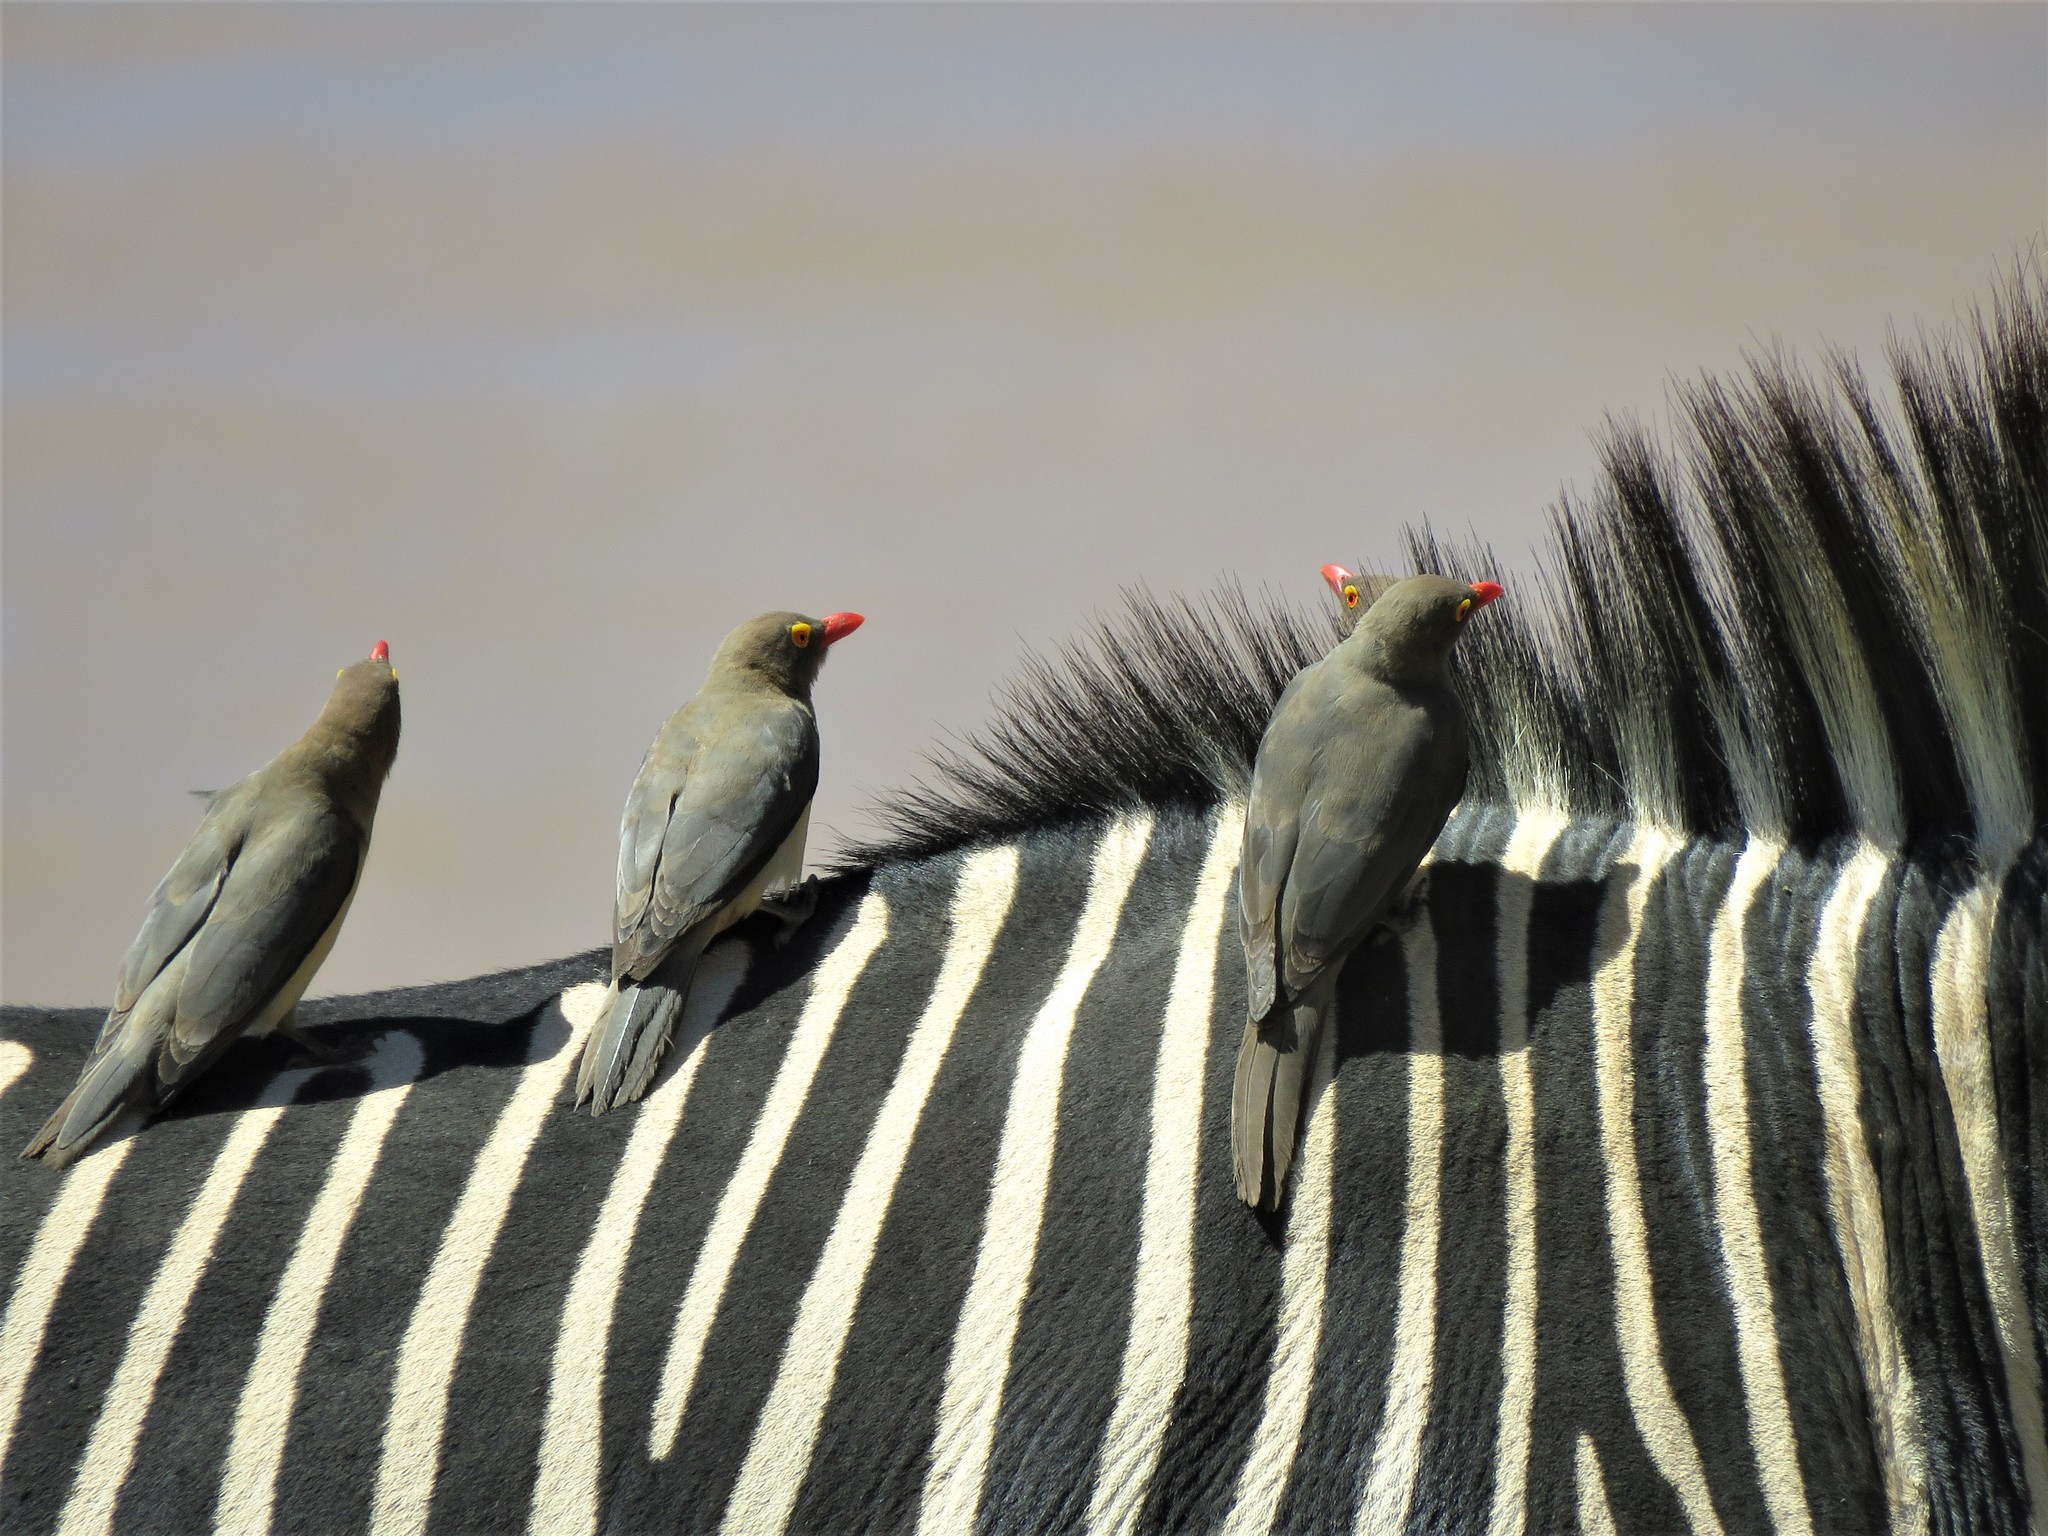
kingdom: Animalia
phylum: Chordata
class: Aves
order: Passeriformes
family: Buphagidae
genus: Buphagus
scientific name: Buphagus erythrorhynchus
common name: Red-billed oxpecker
